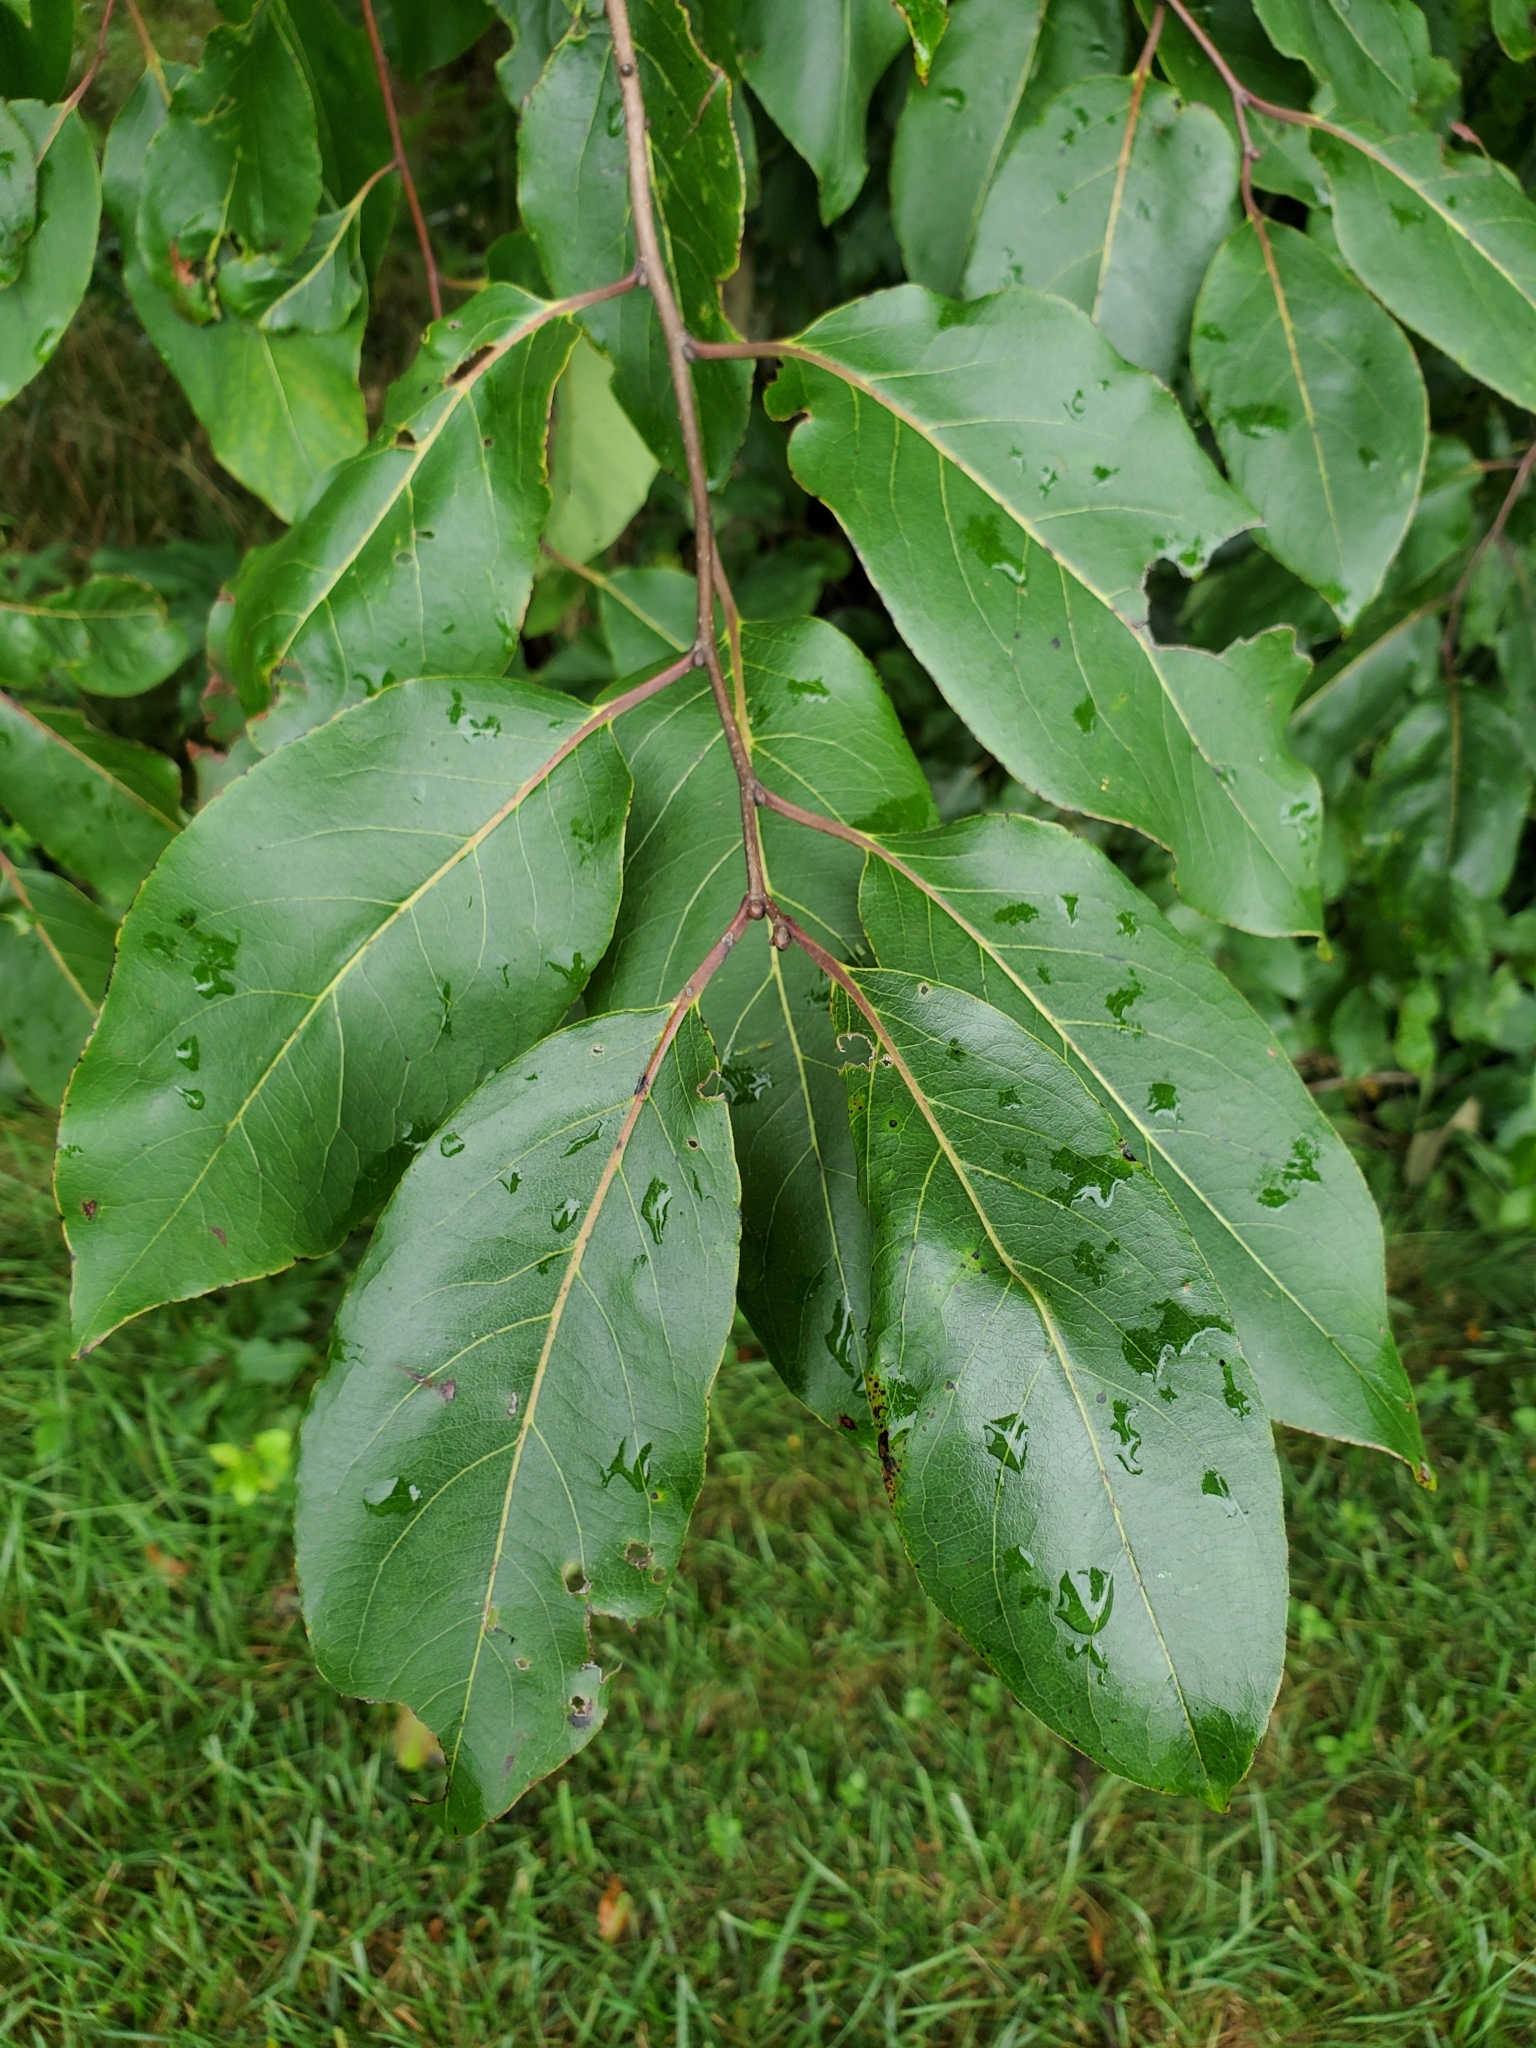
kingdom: Plantae
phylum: Tracheophyta
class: Magnoliopsida
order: Ericales
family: Ebenaceae
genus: Diospyros
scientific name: Diospyros virginiana
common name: Persimmon
